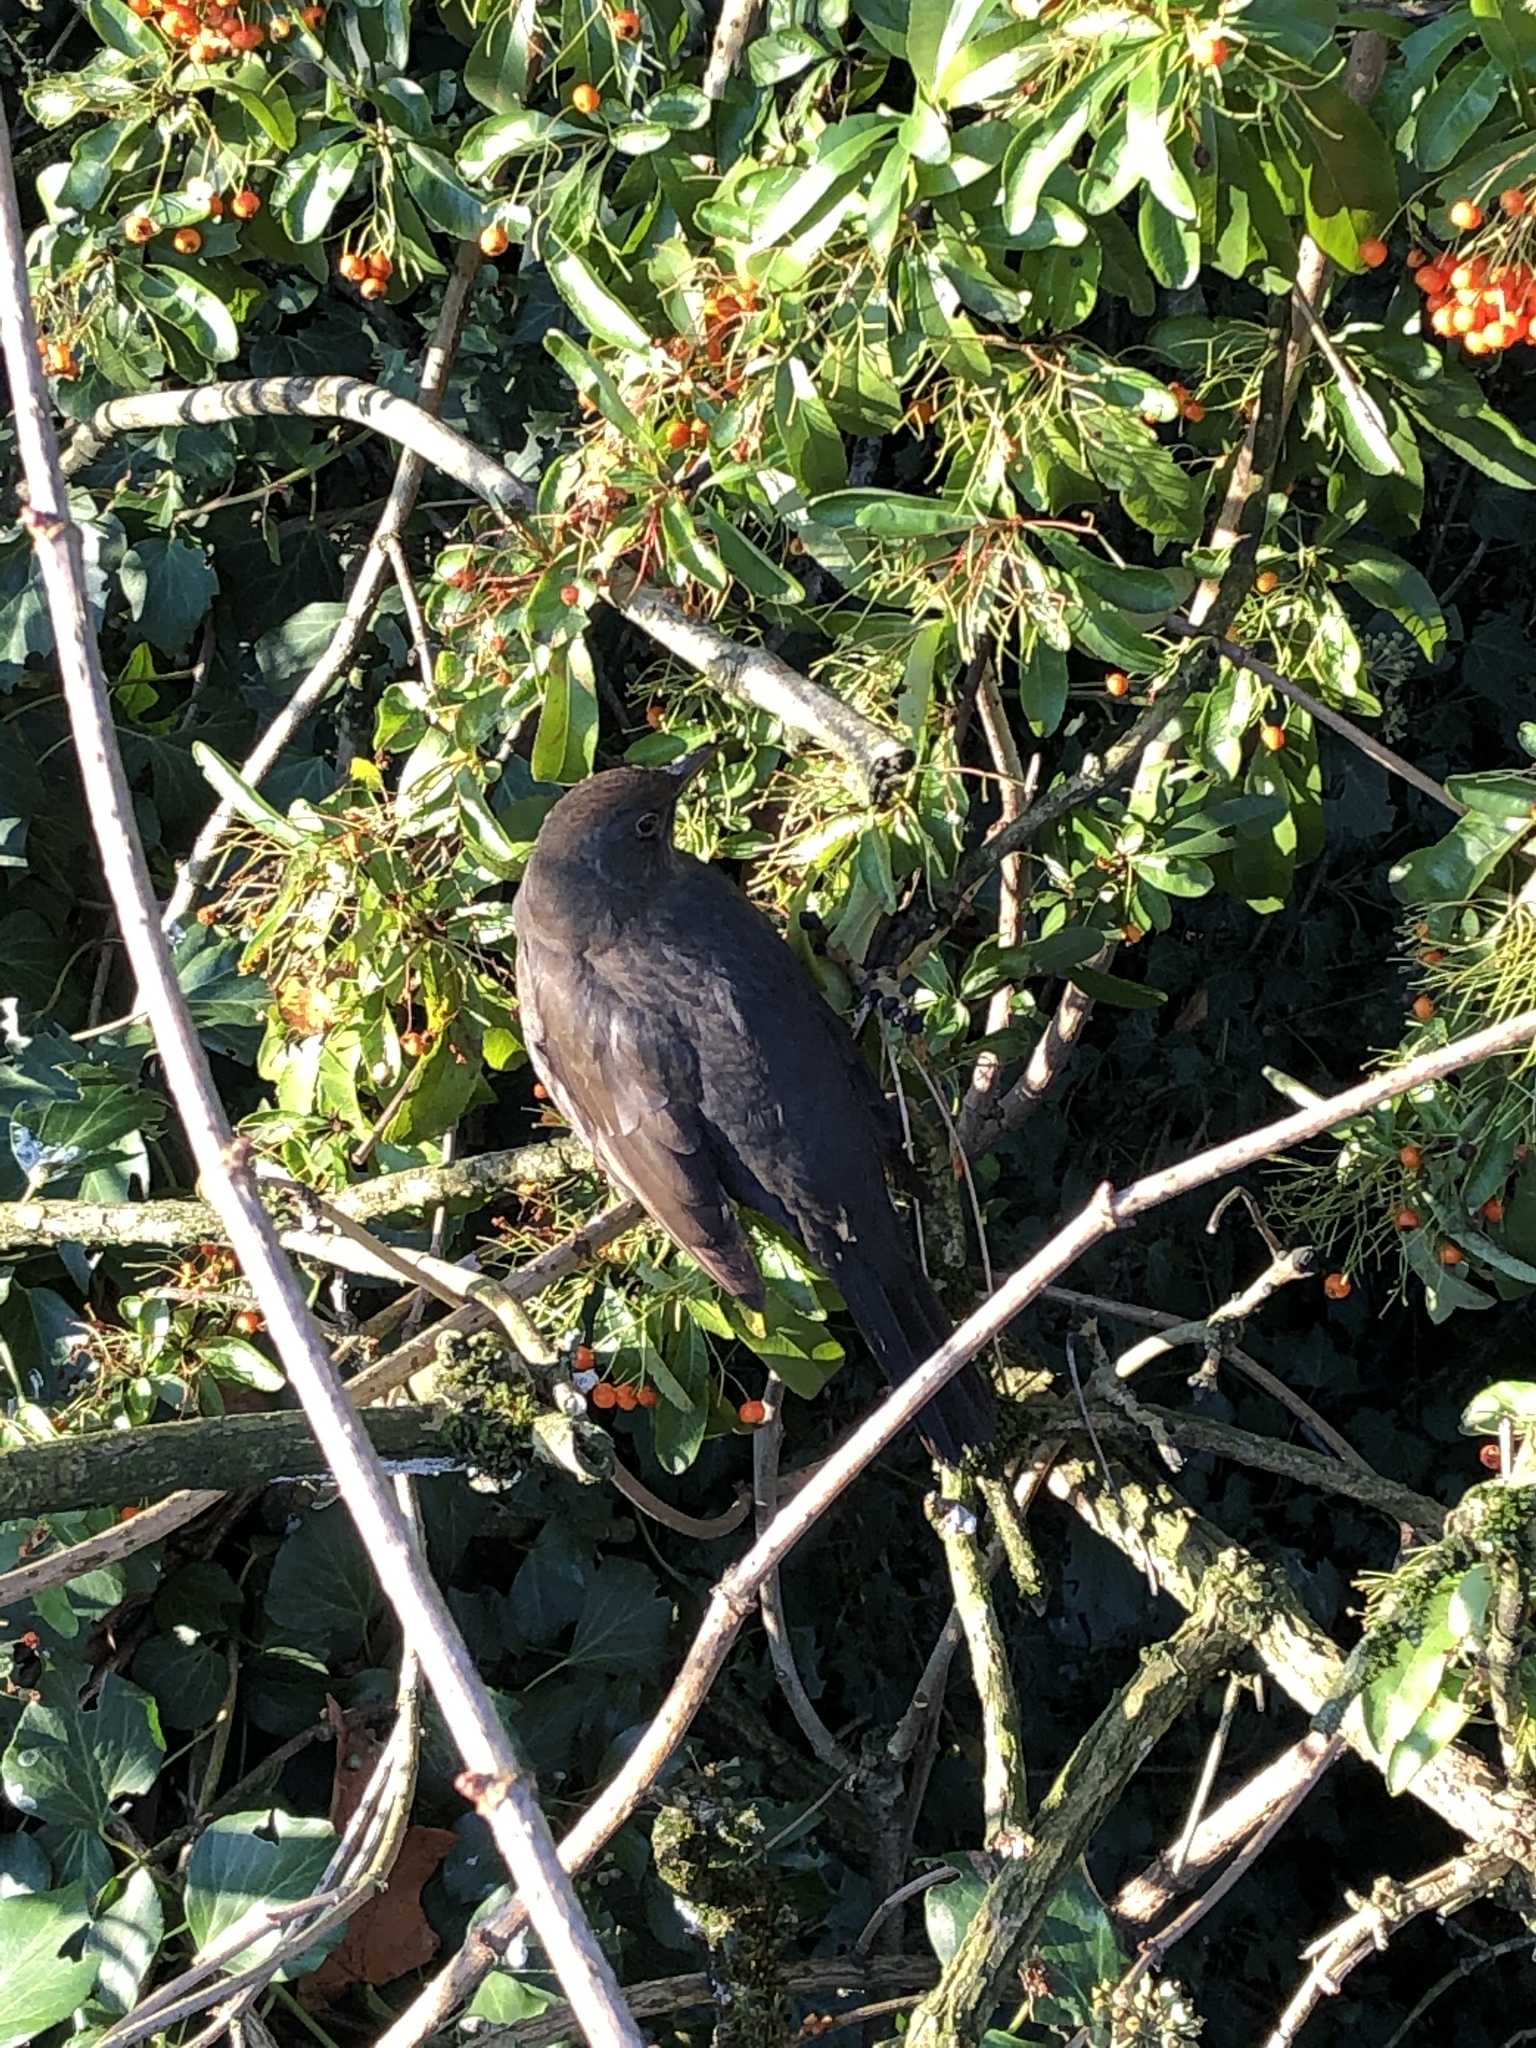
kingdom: Animalia
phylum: Chordata
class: Aves
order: Passeriformes
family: Turdidae
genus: Turdus
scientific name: Turdus merula
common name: Common blackbird
